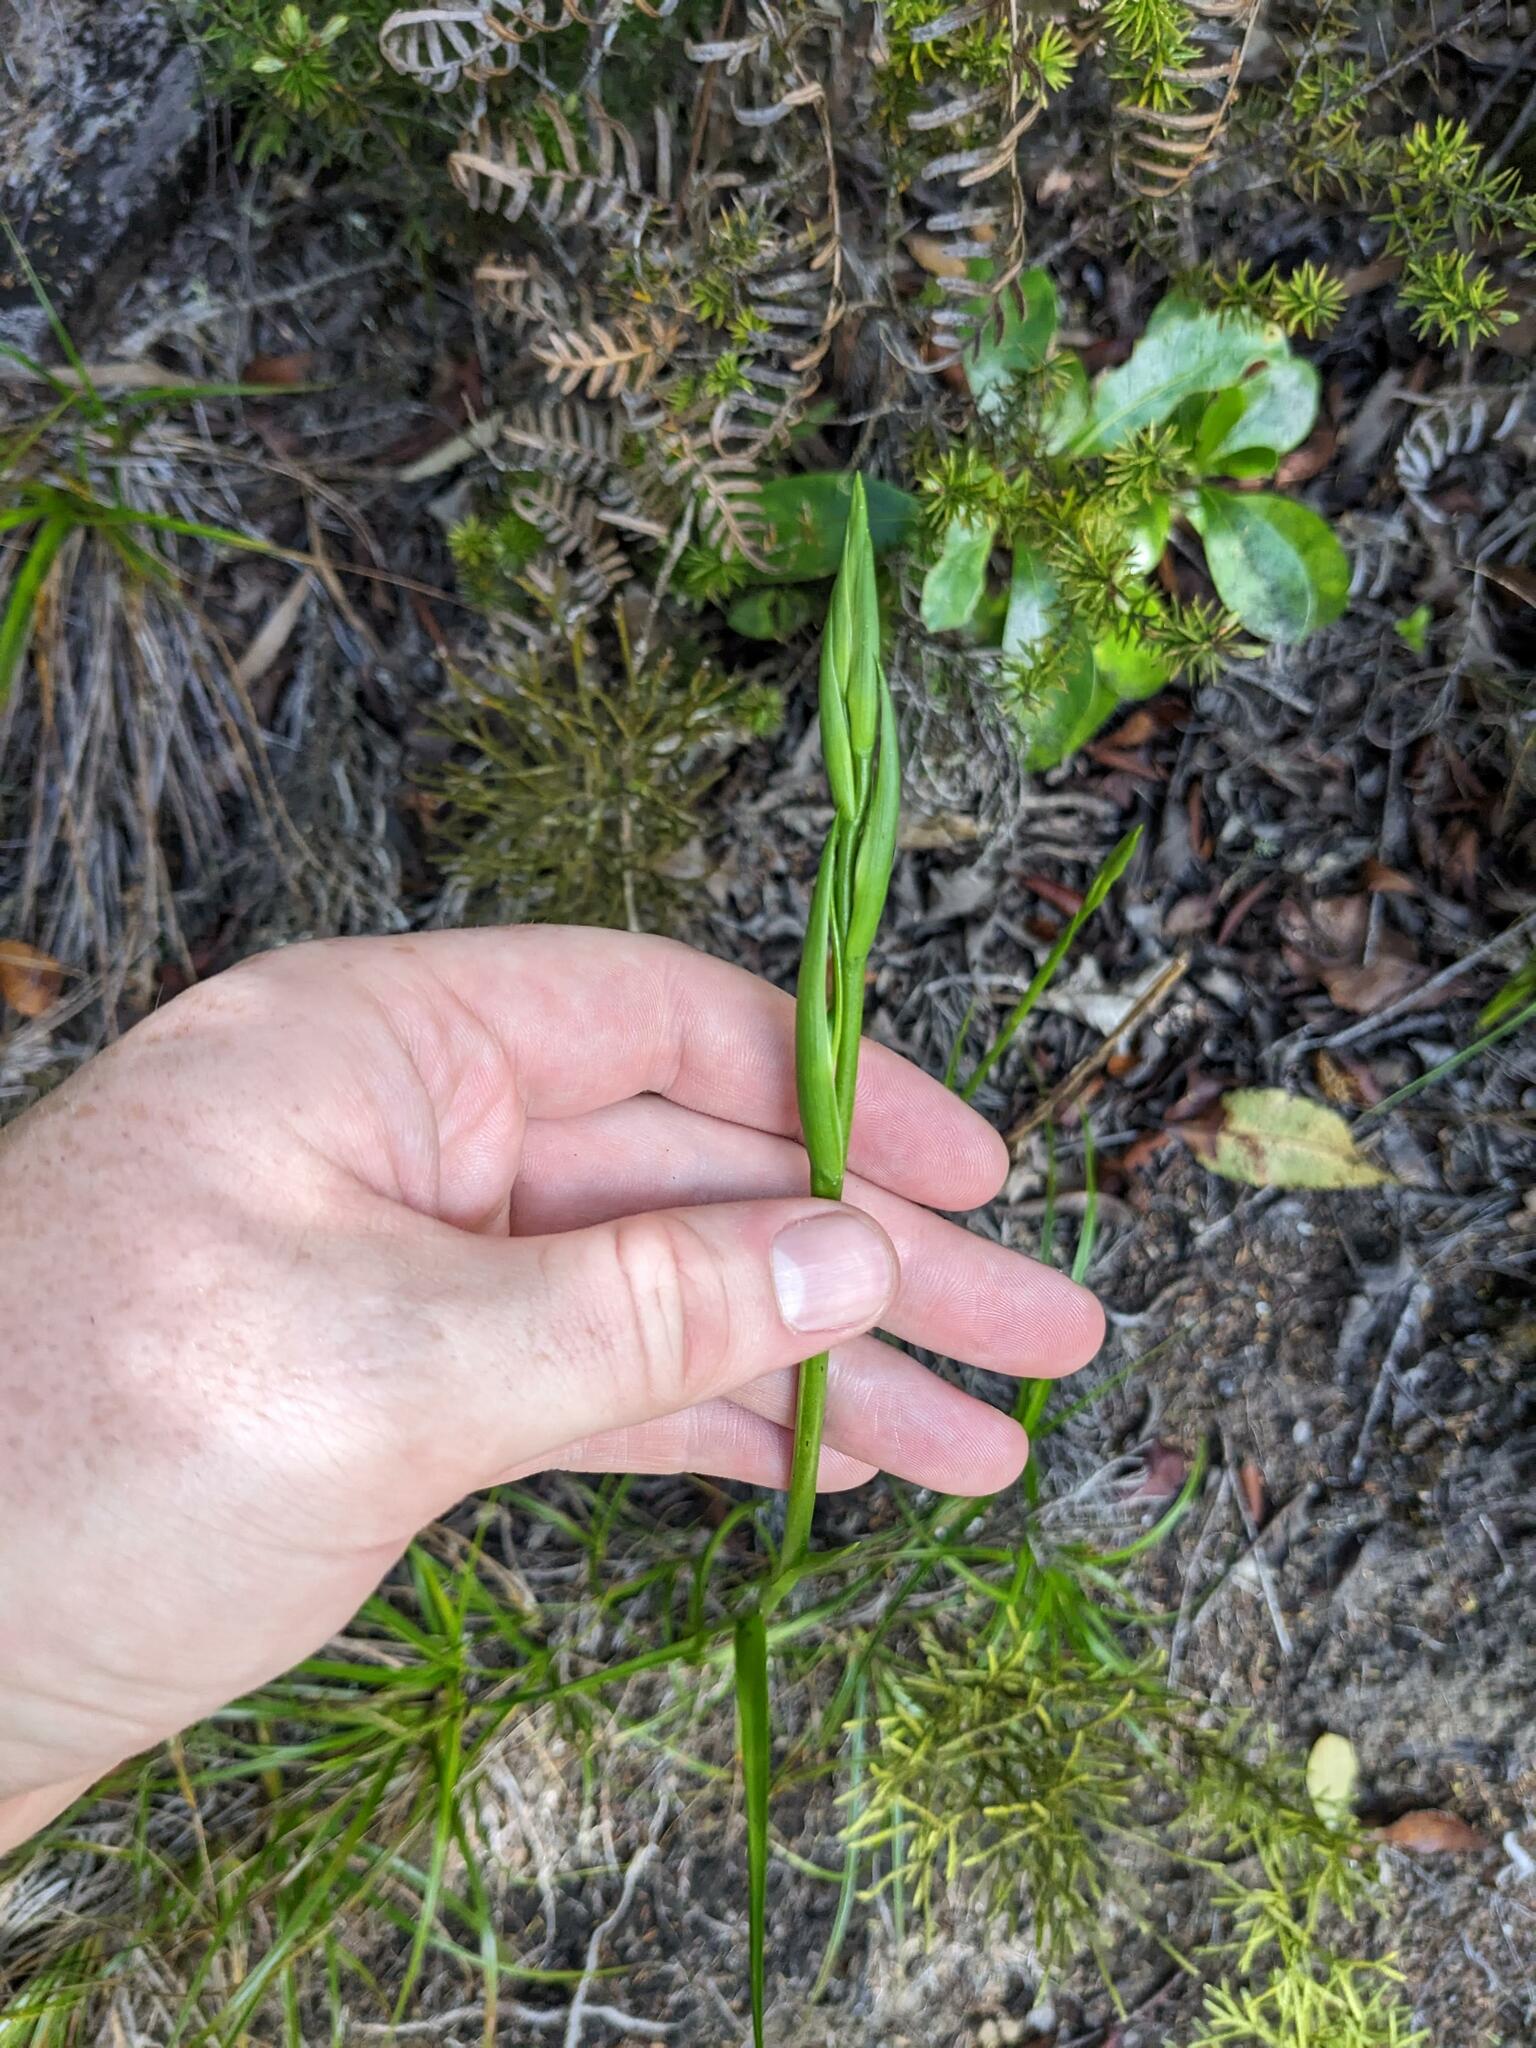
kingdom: Plantae
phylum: Tracheophyta
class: Liliopsida
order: Asparagales
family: Orchidaceae
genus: Orthoceras
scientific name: Orthoceras novae-zeelandiae
